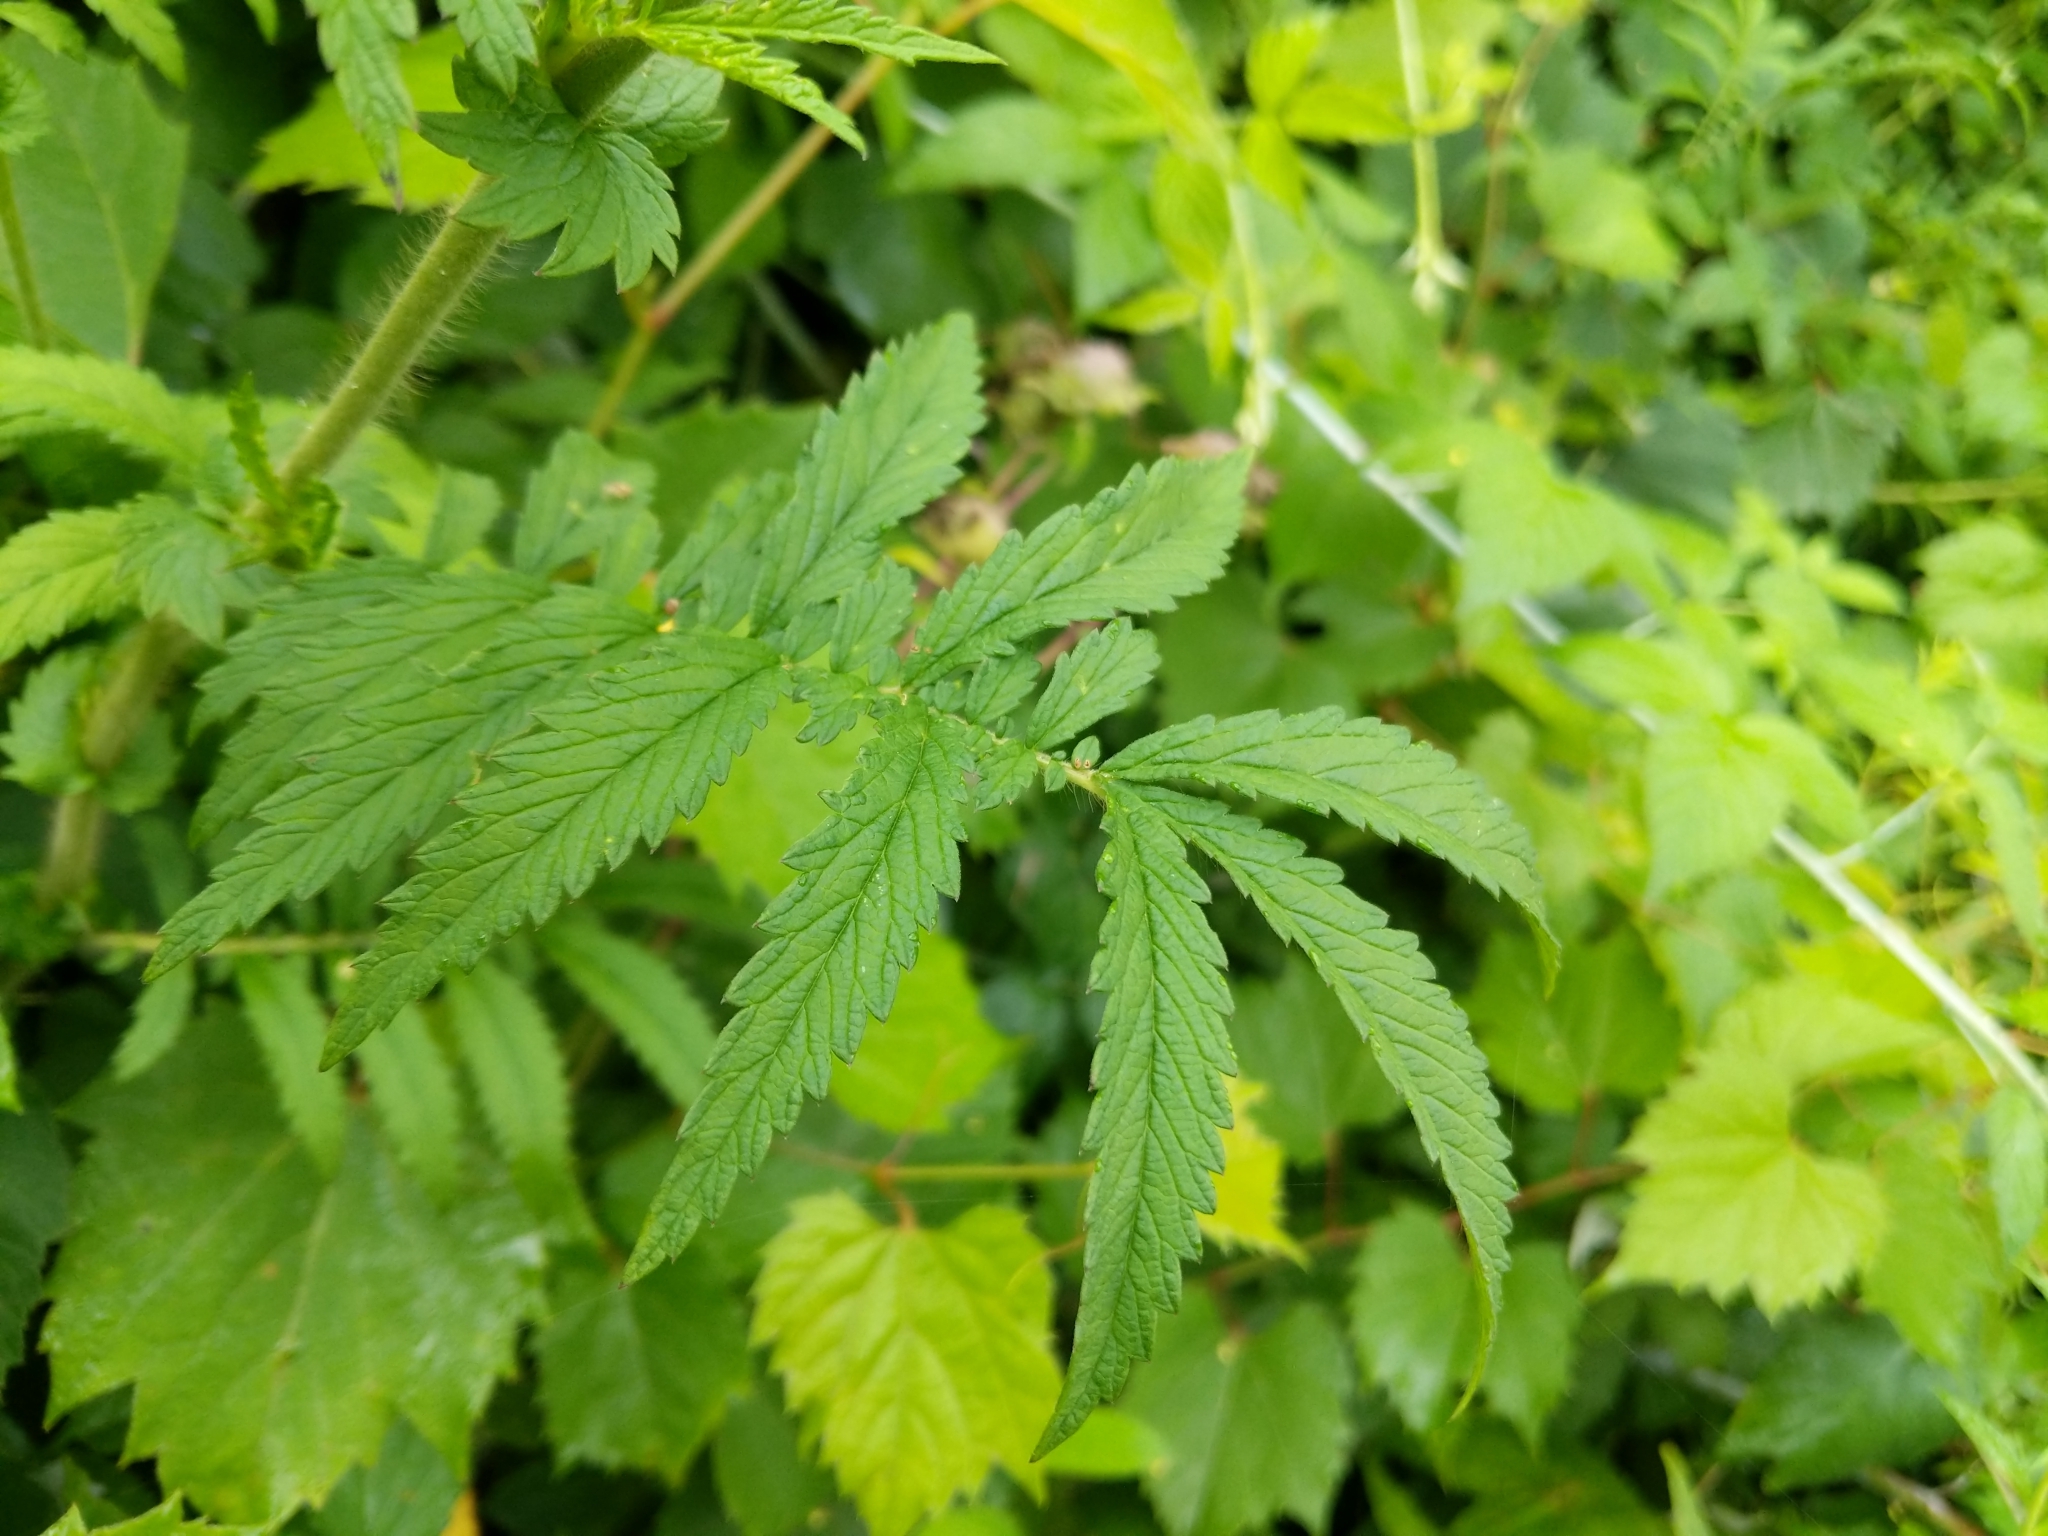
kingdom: Plantae
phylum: Tracheophyta
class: Magnoliopsida
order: Rosales
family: Rosaceae
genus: Agrimonia
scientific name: Agrimonia parviflora
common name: Harvest-lice
